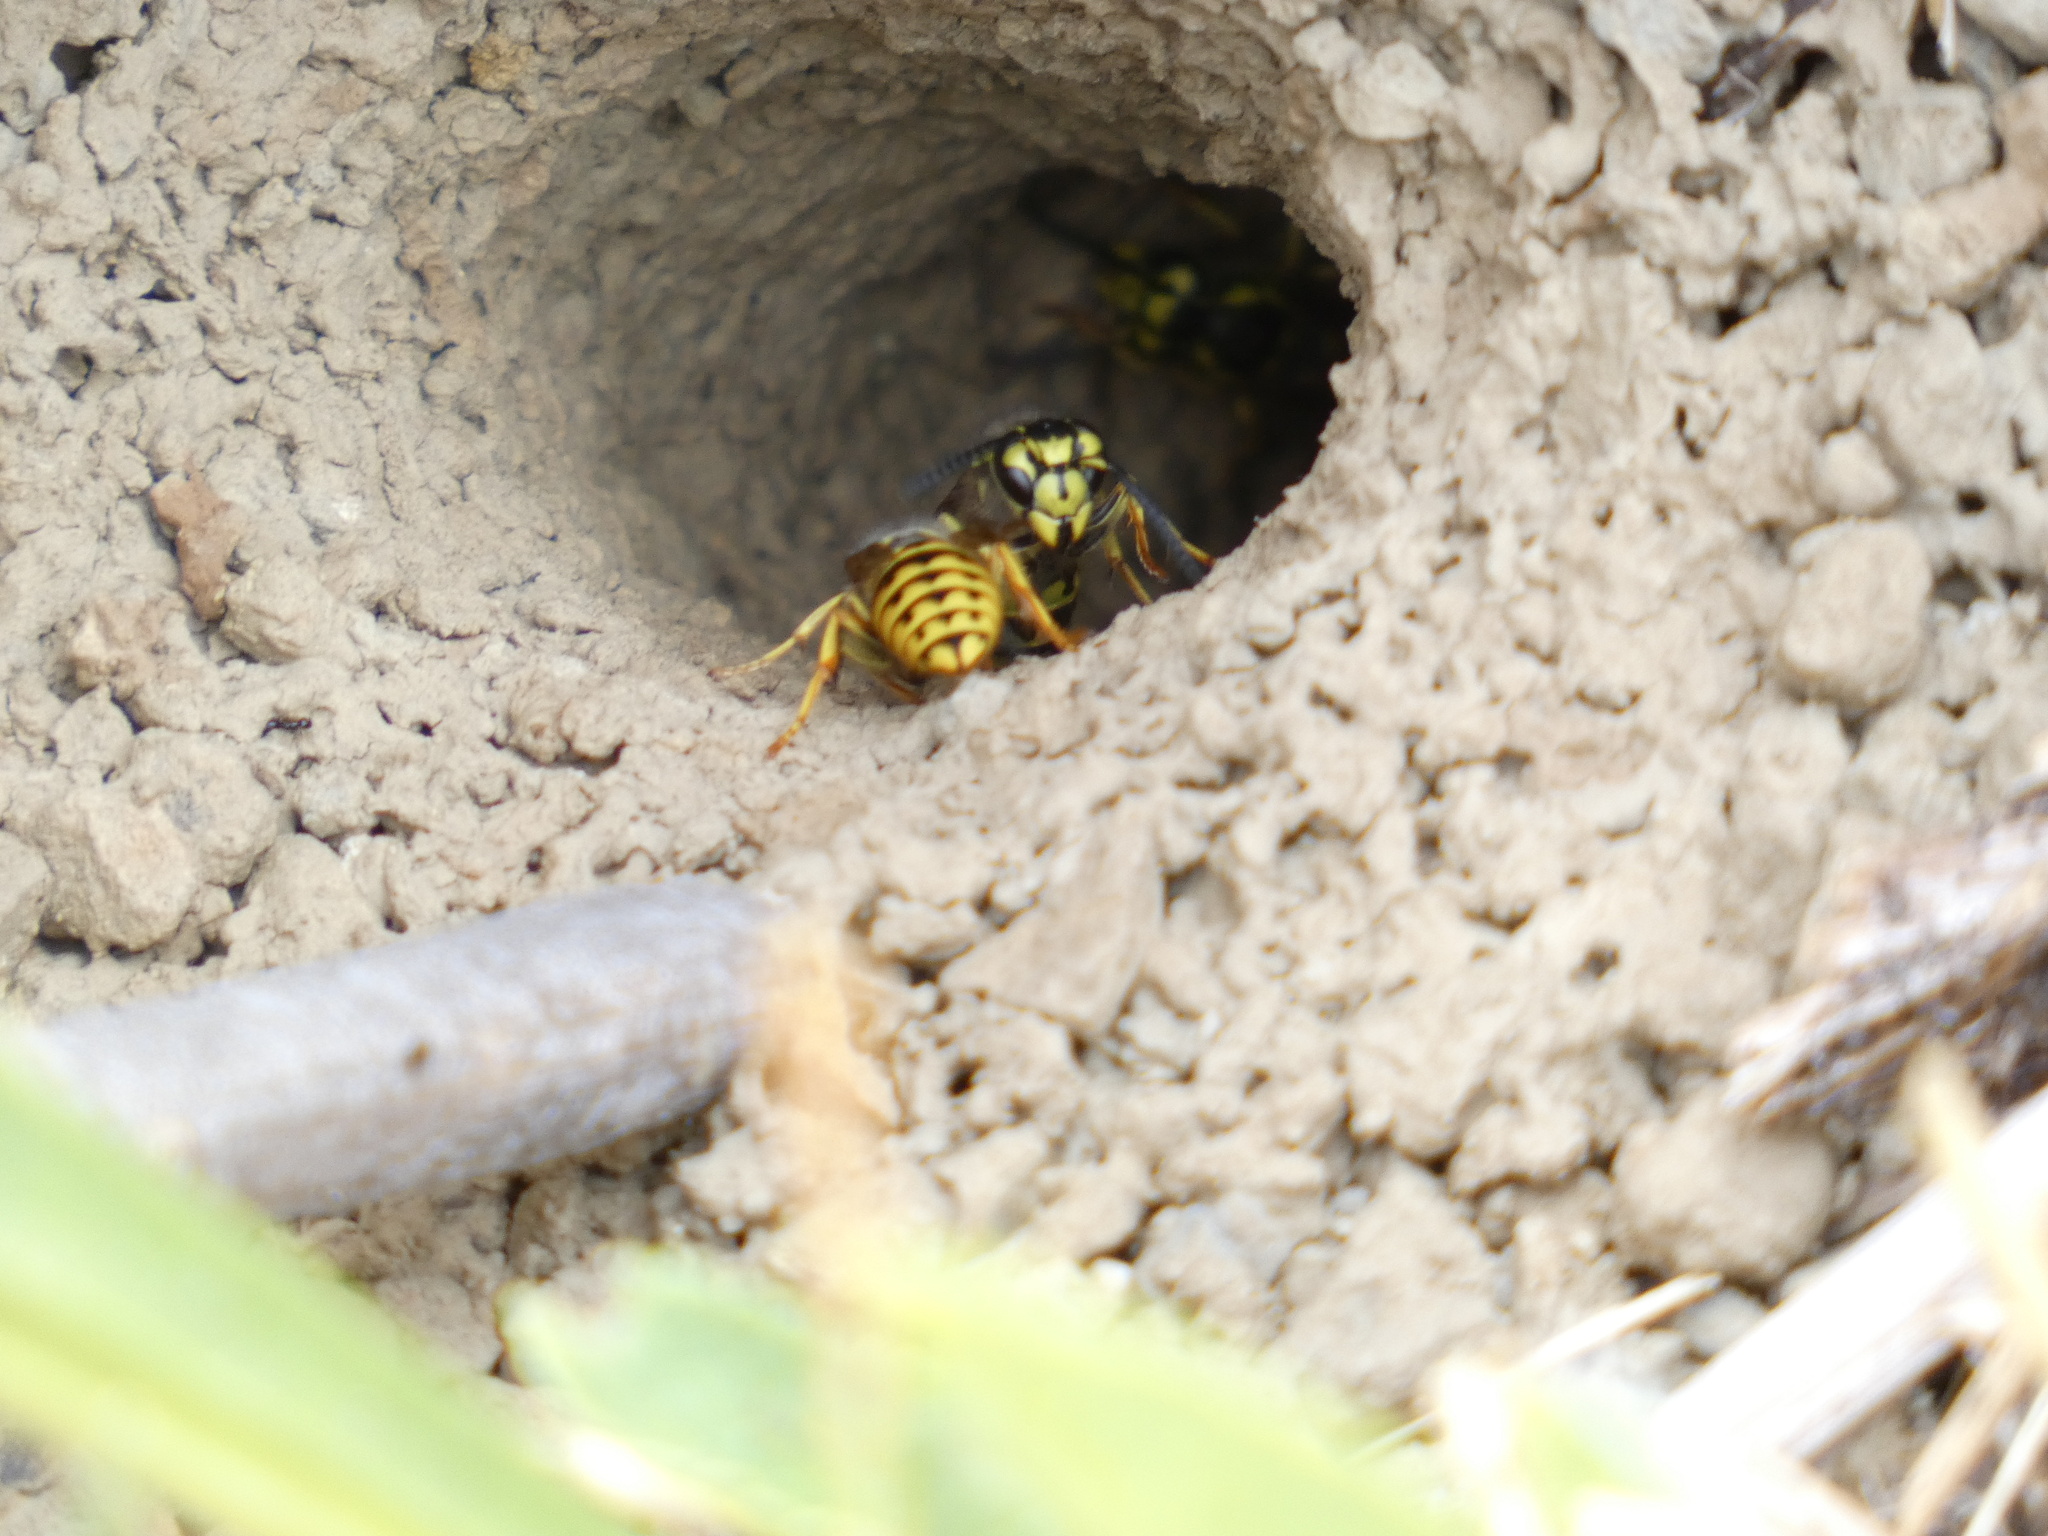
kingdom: Animalia
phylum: Arthropoda
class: Insecta
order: Hymenoptera
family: Vespidae
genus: Vespula
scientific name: Vespula pensylvanica
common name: Western yellowjacket
